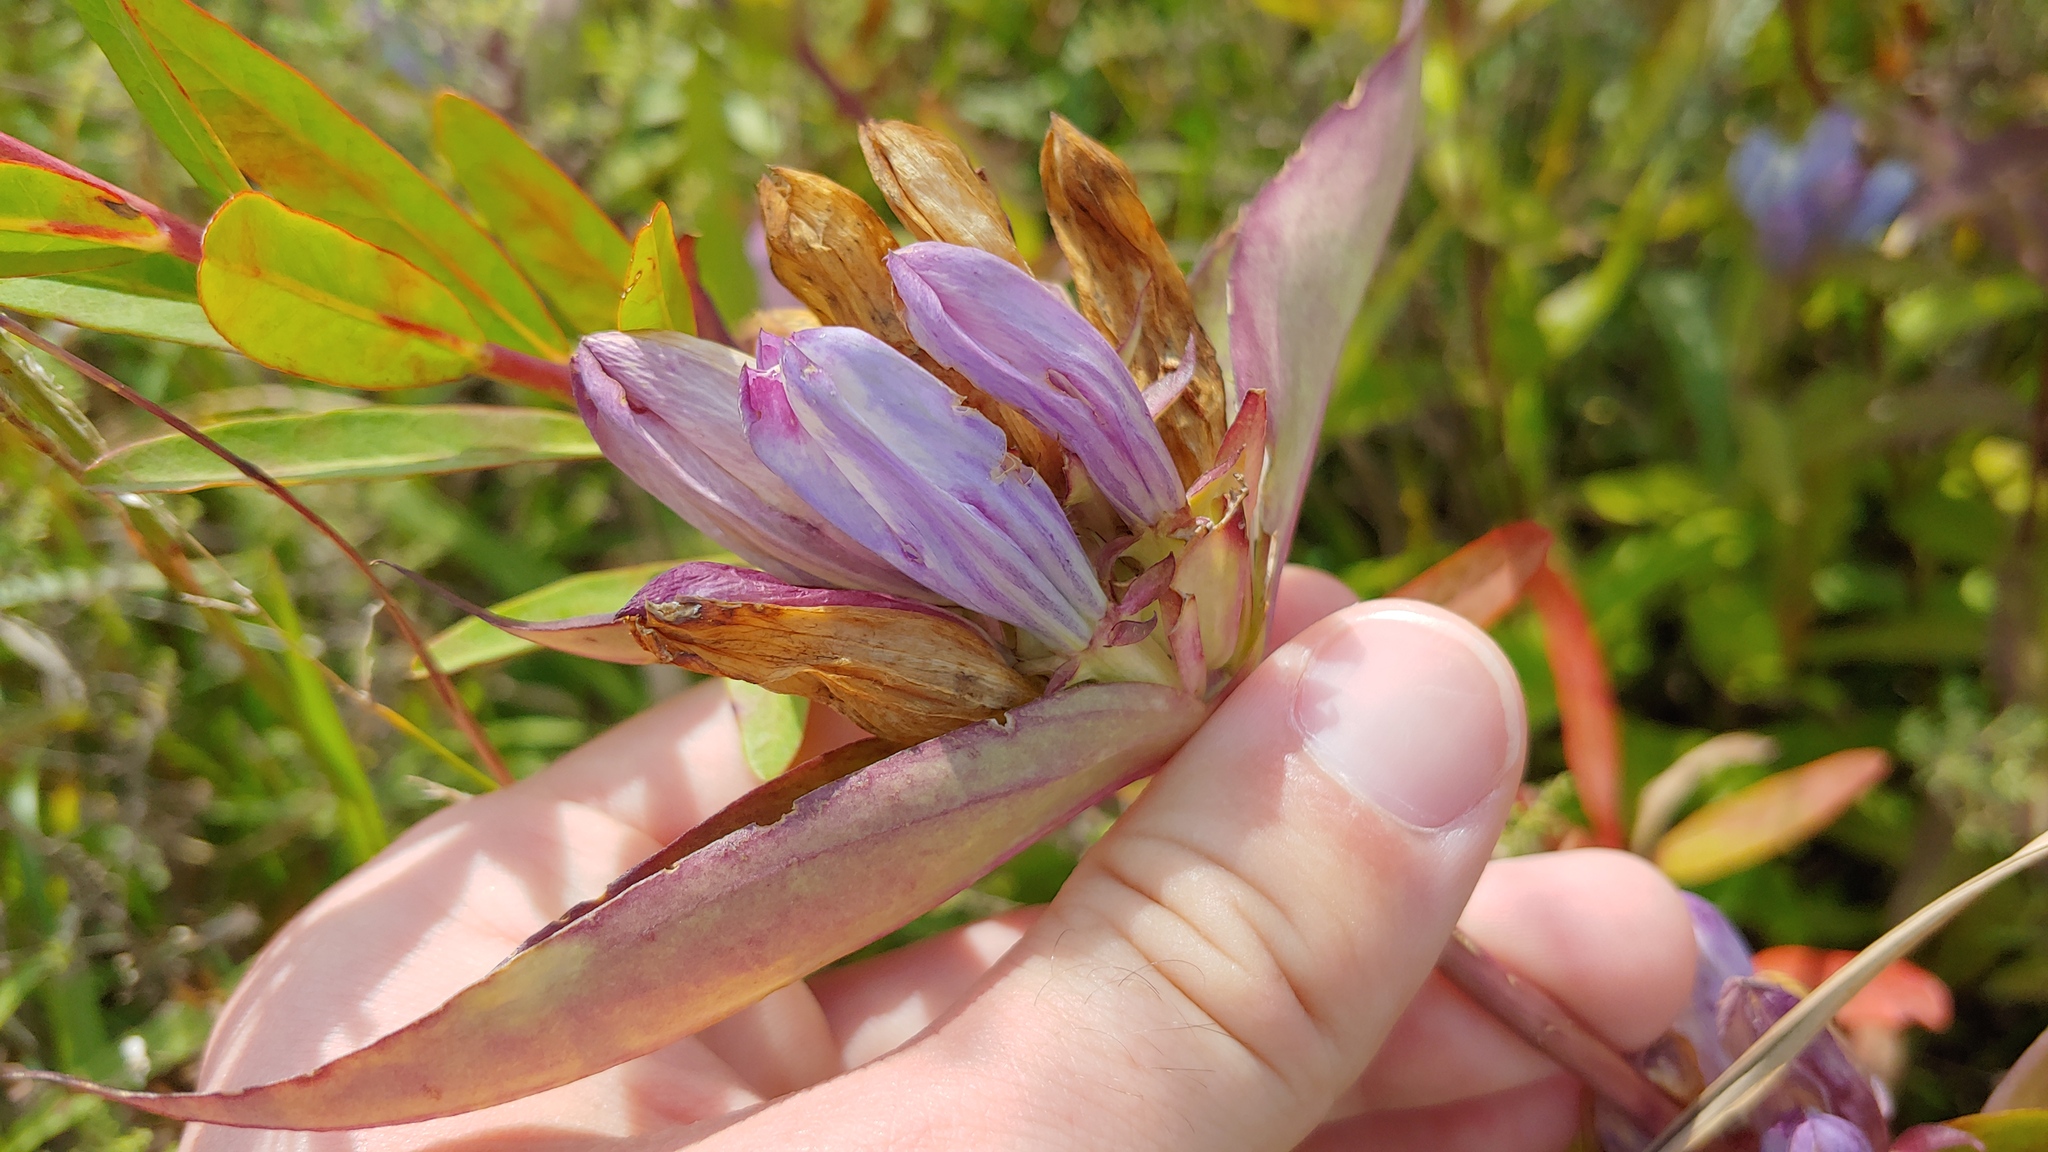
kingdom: Plantae
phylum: Tracheophyta
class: Magnoliopsida
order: Gentianales
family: Gentianaceae
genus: Gentiana
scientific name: Gentiana andrewsii
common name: Bottle gentian
